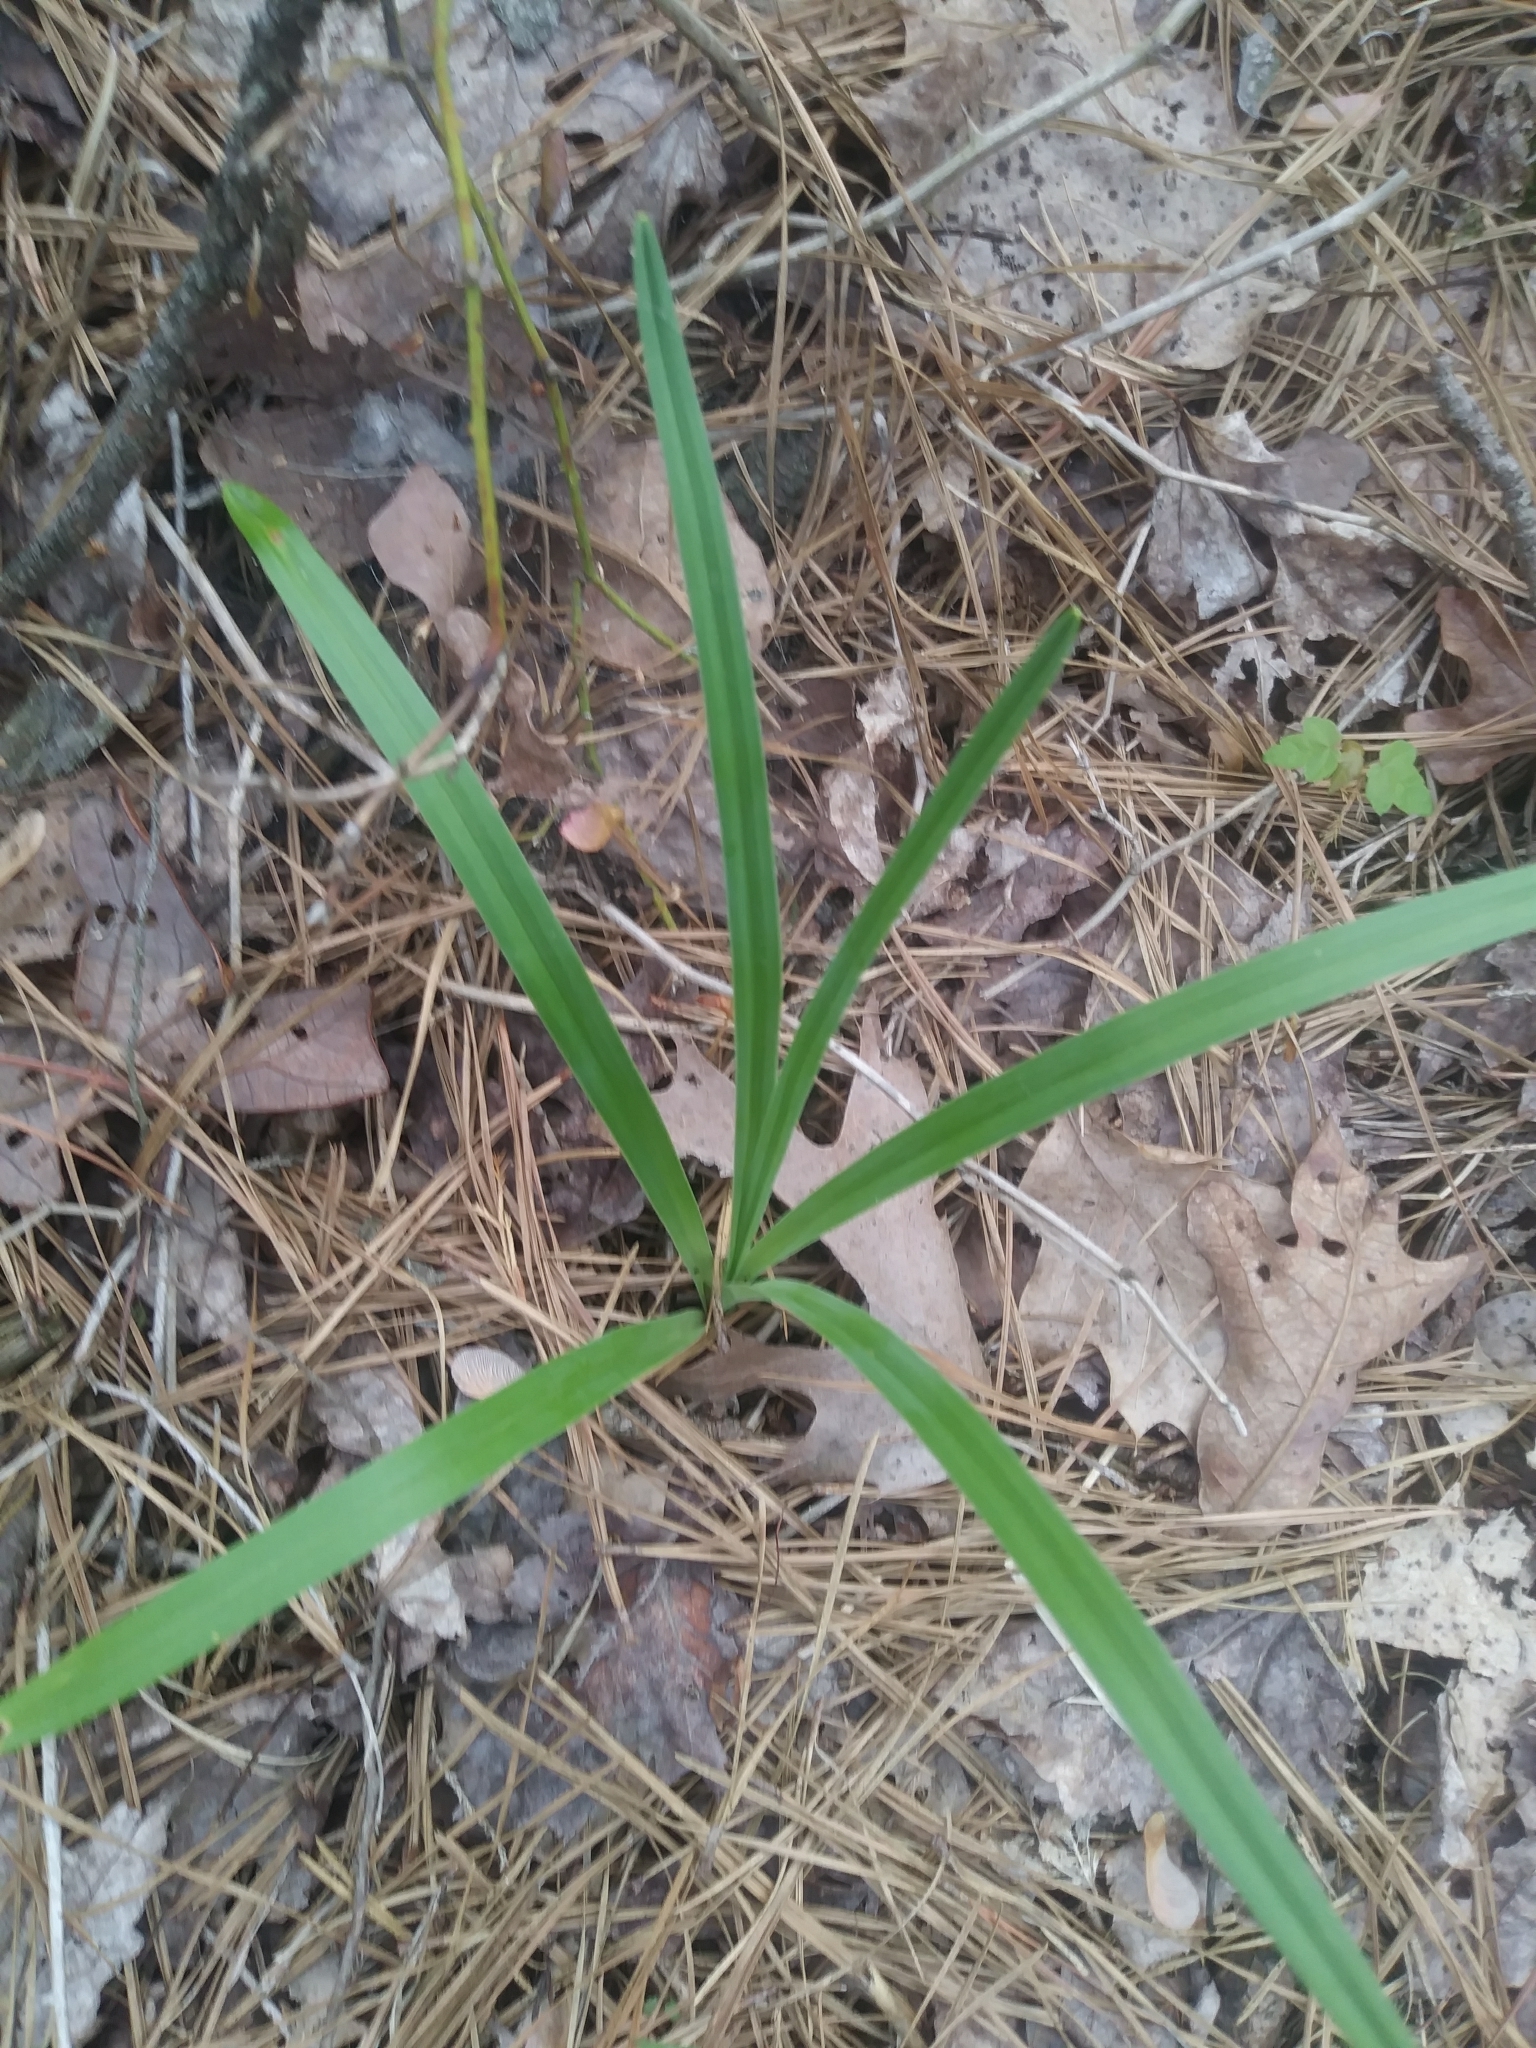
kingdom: Plantae
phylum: Tracheophyta
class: Liliopsida
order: Liliales
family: Melanthiaceae
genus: Amianthium
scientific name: Amianthium muscitoxicum
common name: Fly-poison
